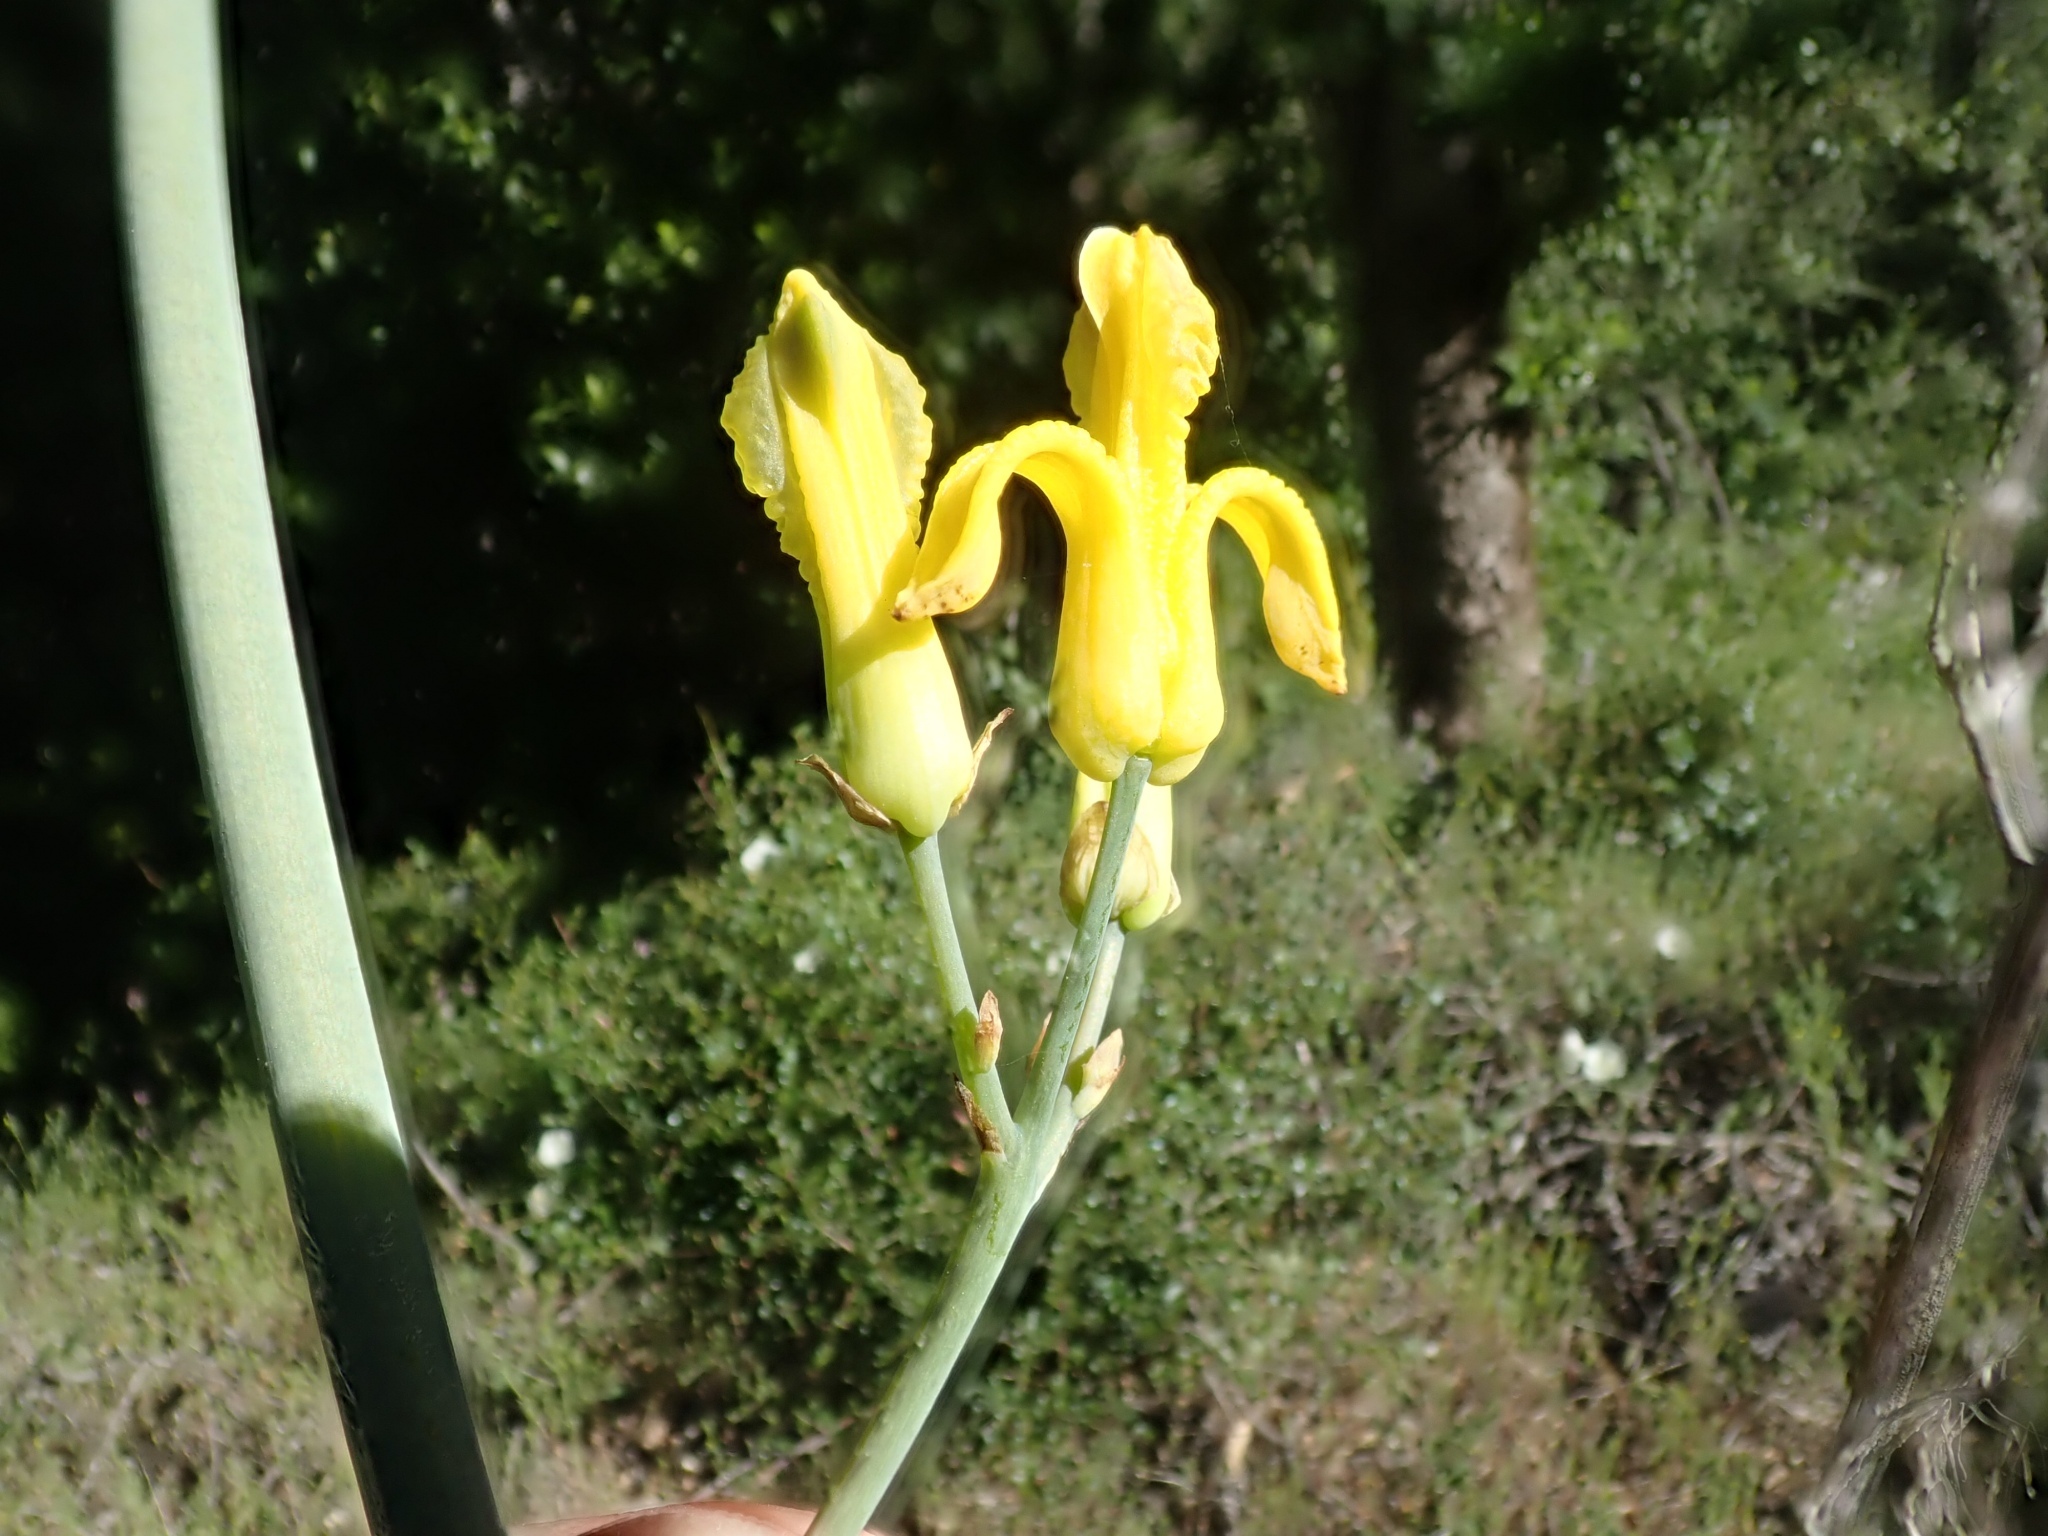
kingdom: Plantae
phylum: Tracheophyta
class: Magnoliopsida
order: Ranunculales
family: Papaveraceae
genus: Ehrendorferia
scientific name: Ehrendorferia chrysantha
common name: Golden eardrops
